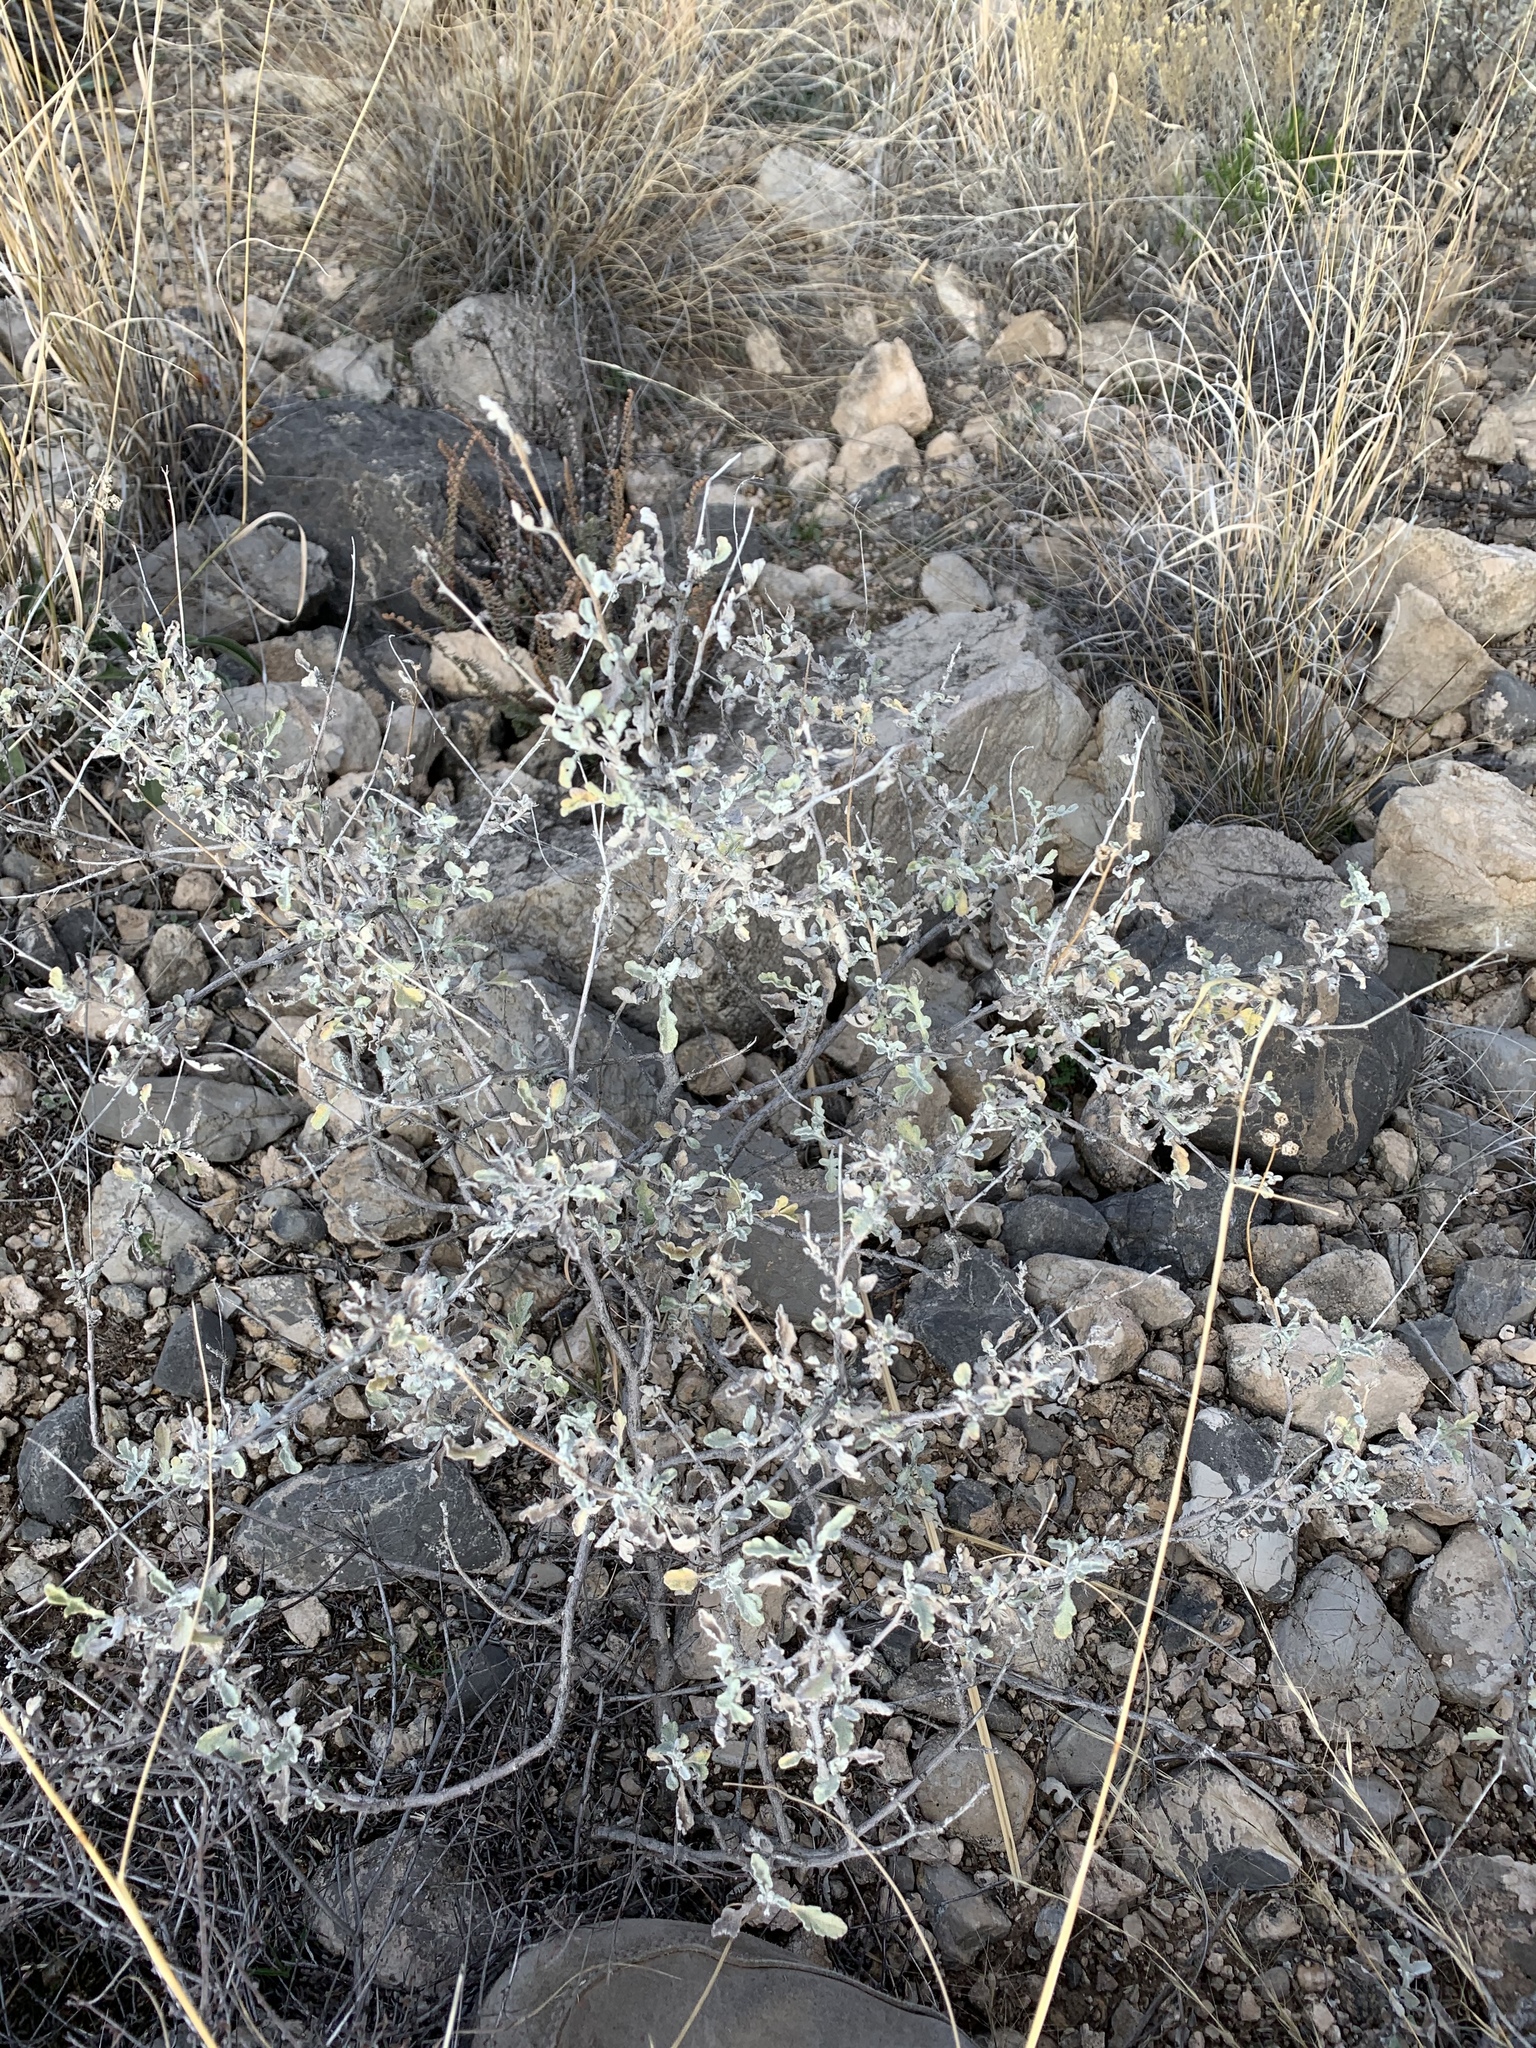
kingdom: Plantae
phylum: Tracheophyta
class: Magnoliopsida
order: Asterales
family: Asteraceae
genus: Parthenium
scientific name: Parthenium incanum
